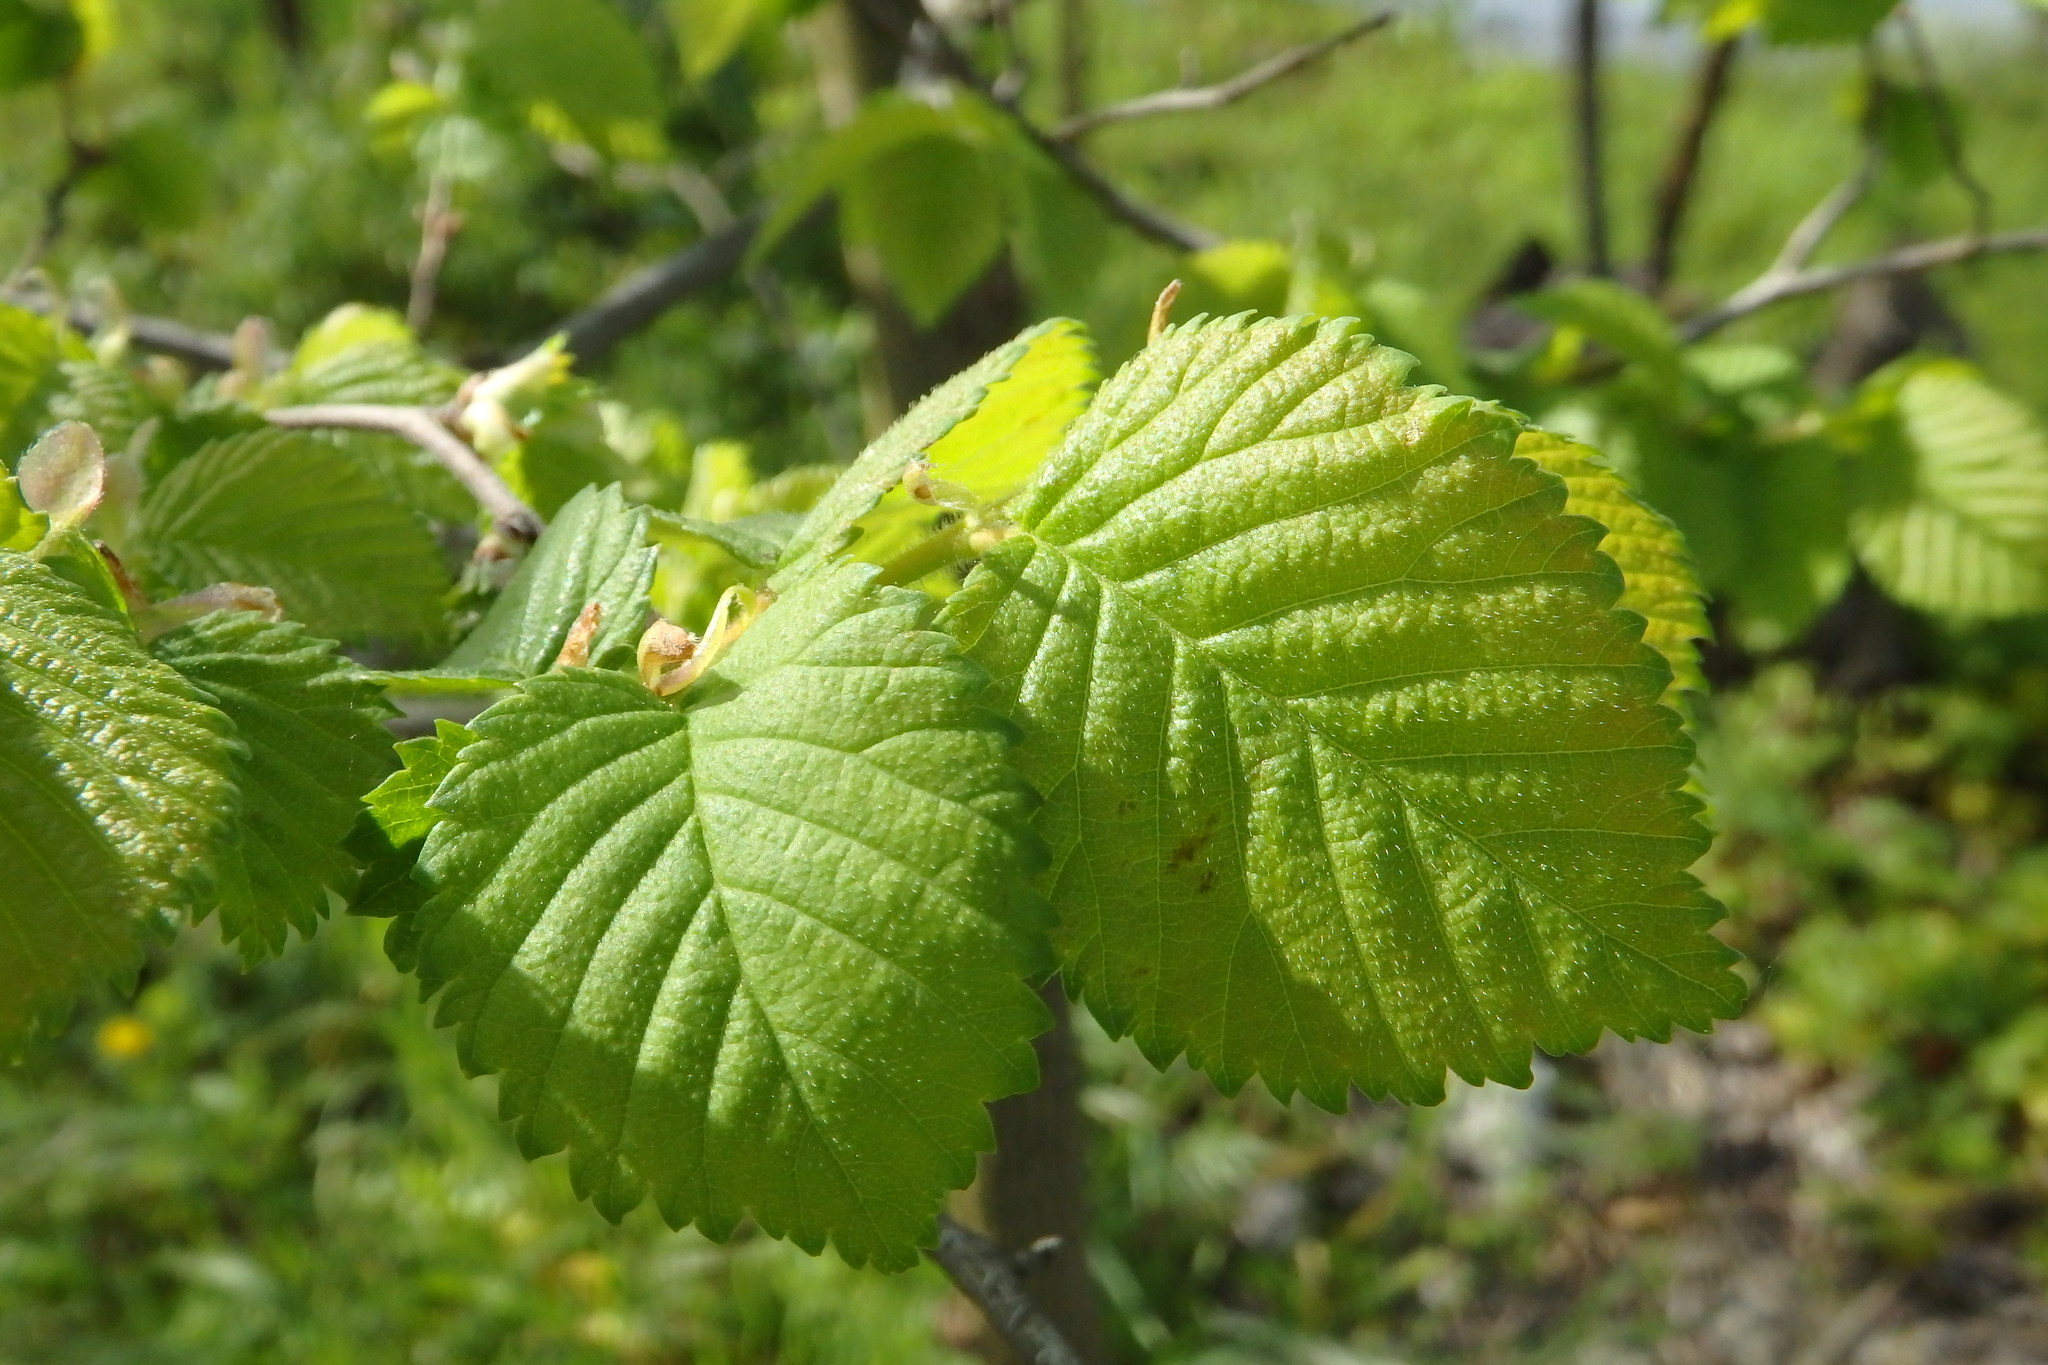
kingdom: Plantae
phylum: Tracheophyta
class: Magnoliopsida
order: Rosales
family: Ulmaceae
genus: Ulmus
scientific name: Ulmus minor
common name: Small-leaved elm
